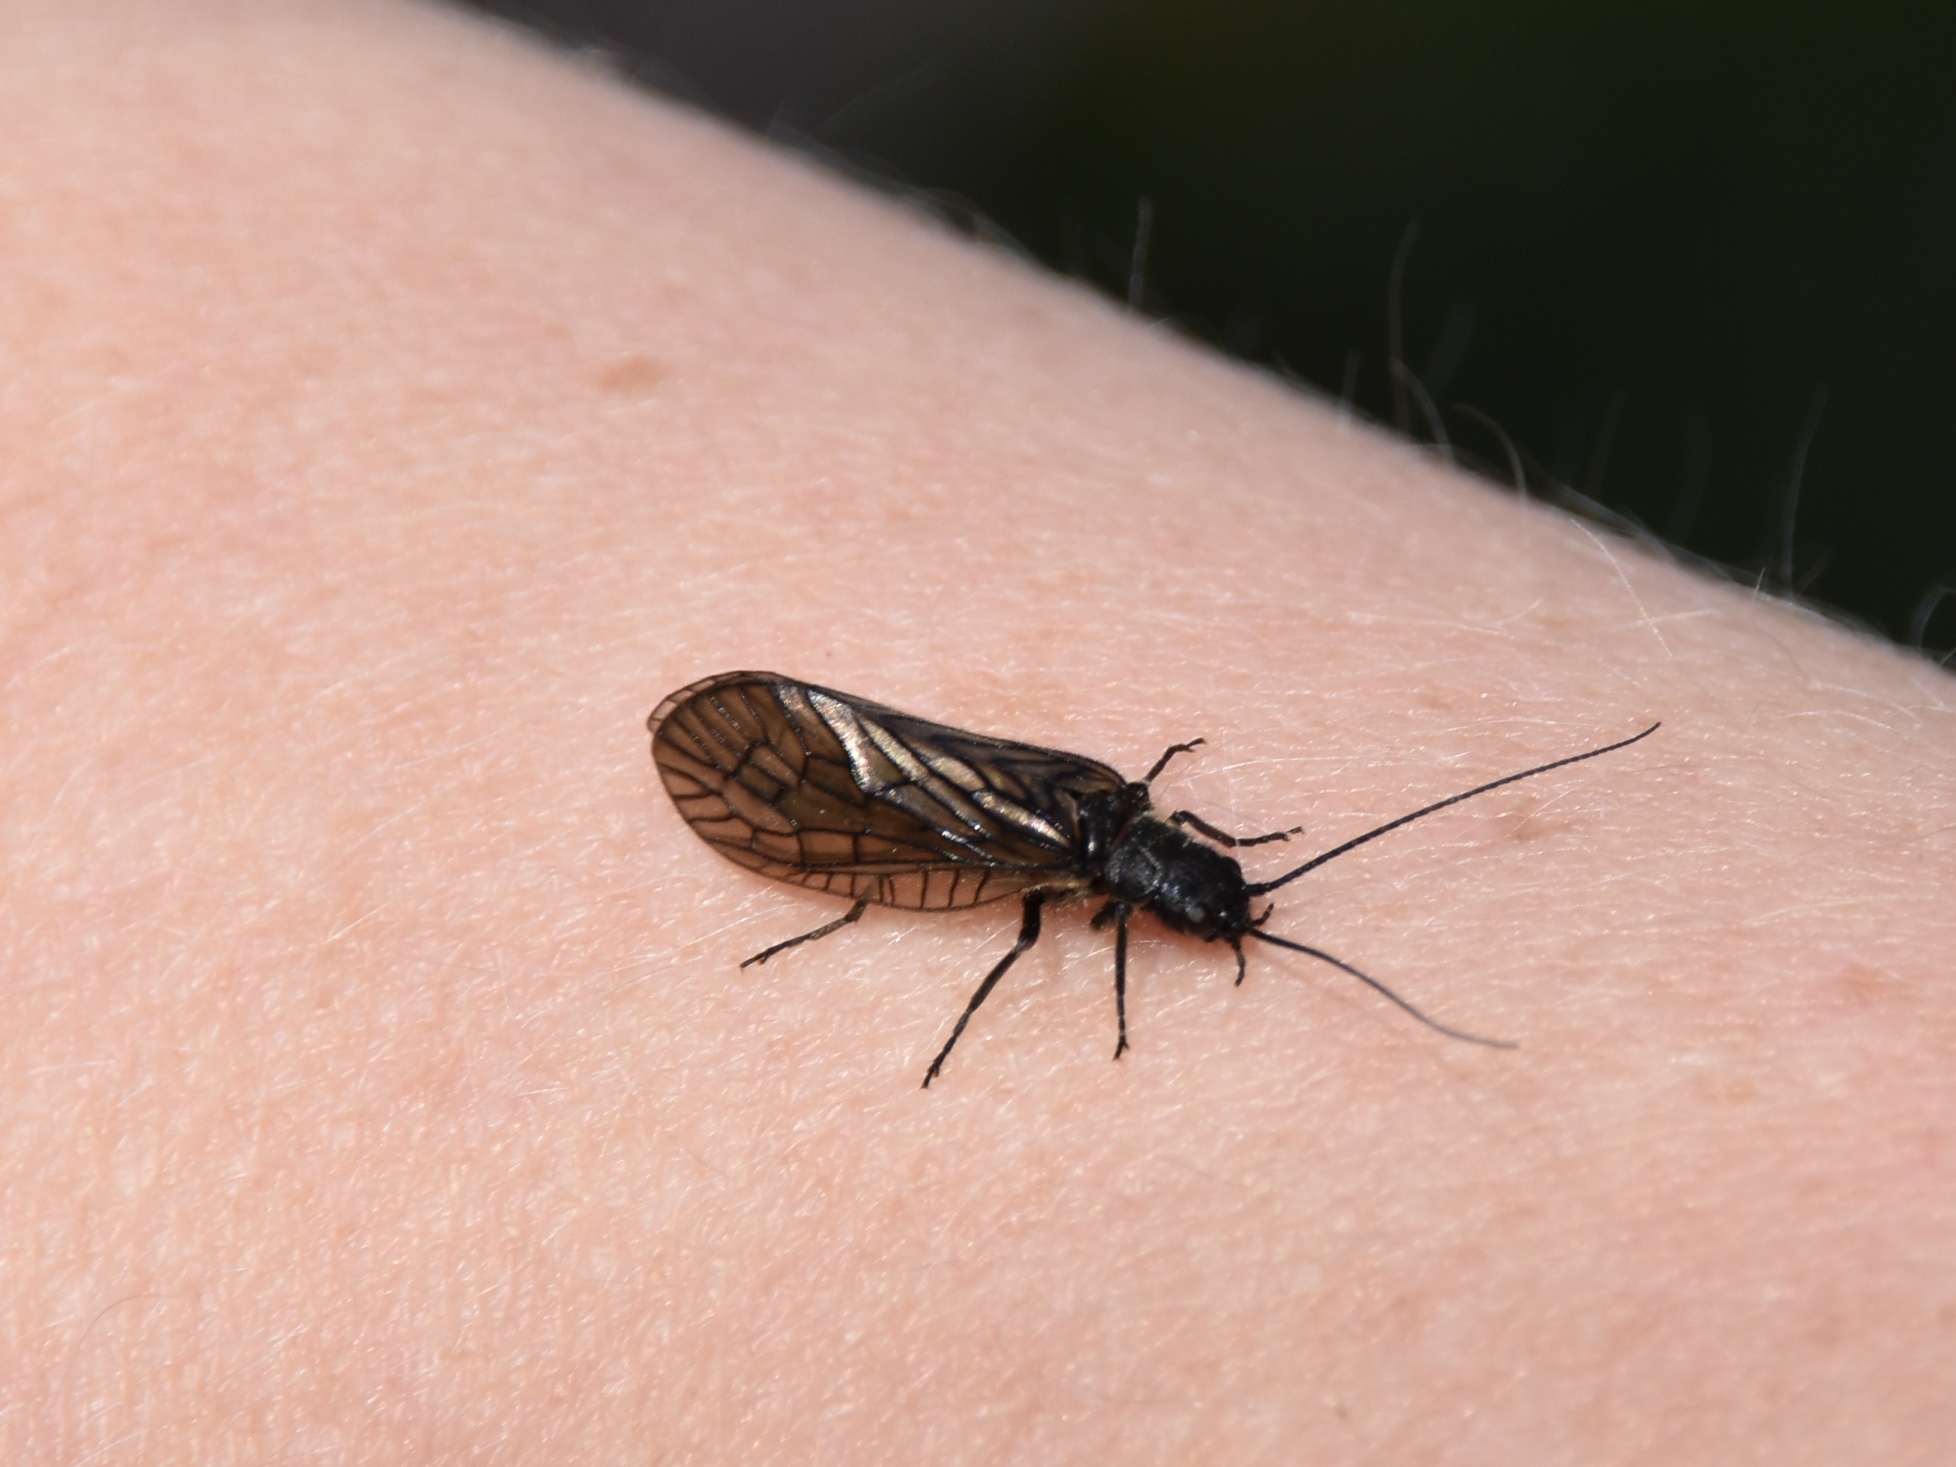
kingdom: Animalia
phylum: Arthropoda
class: Insecta
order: Megaloptera
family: Sialidae
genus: Sialis
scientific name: Sialis
